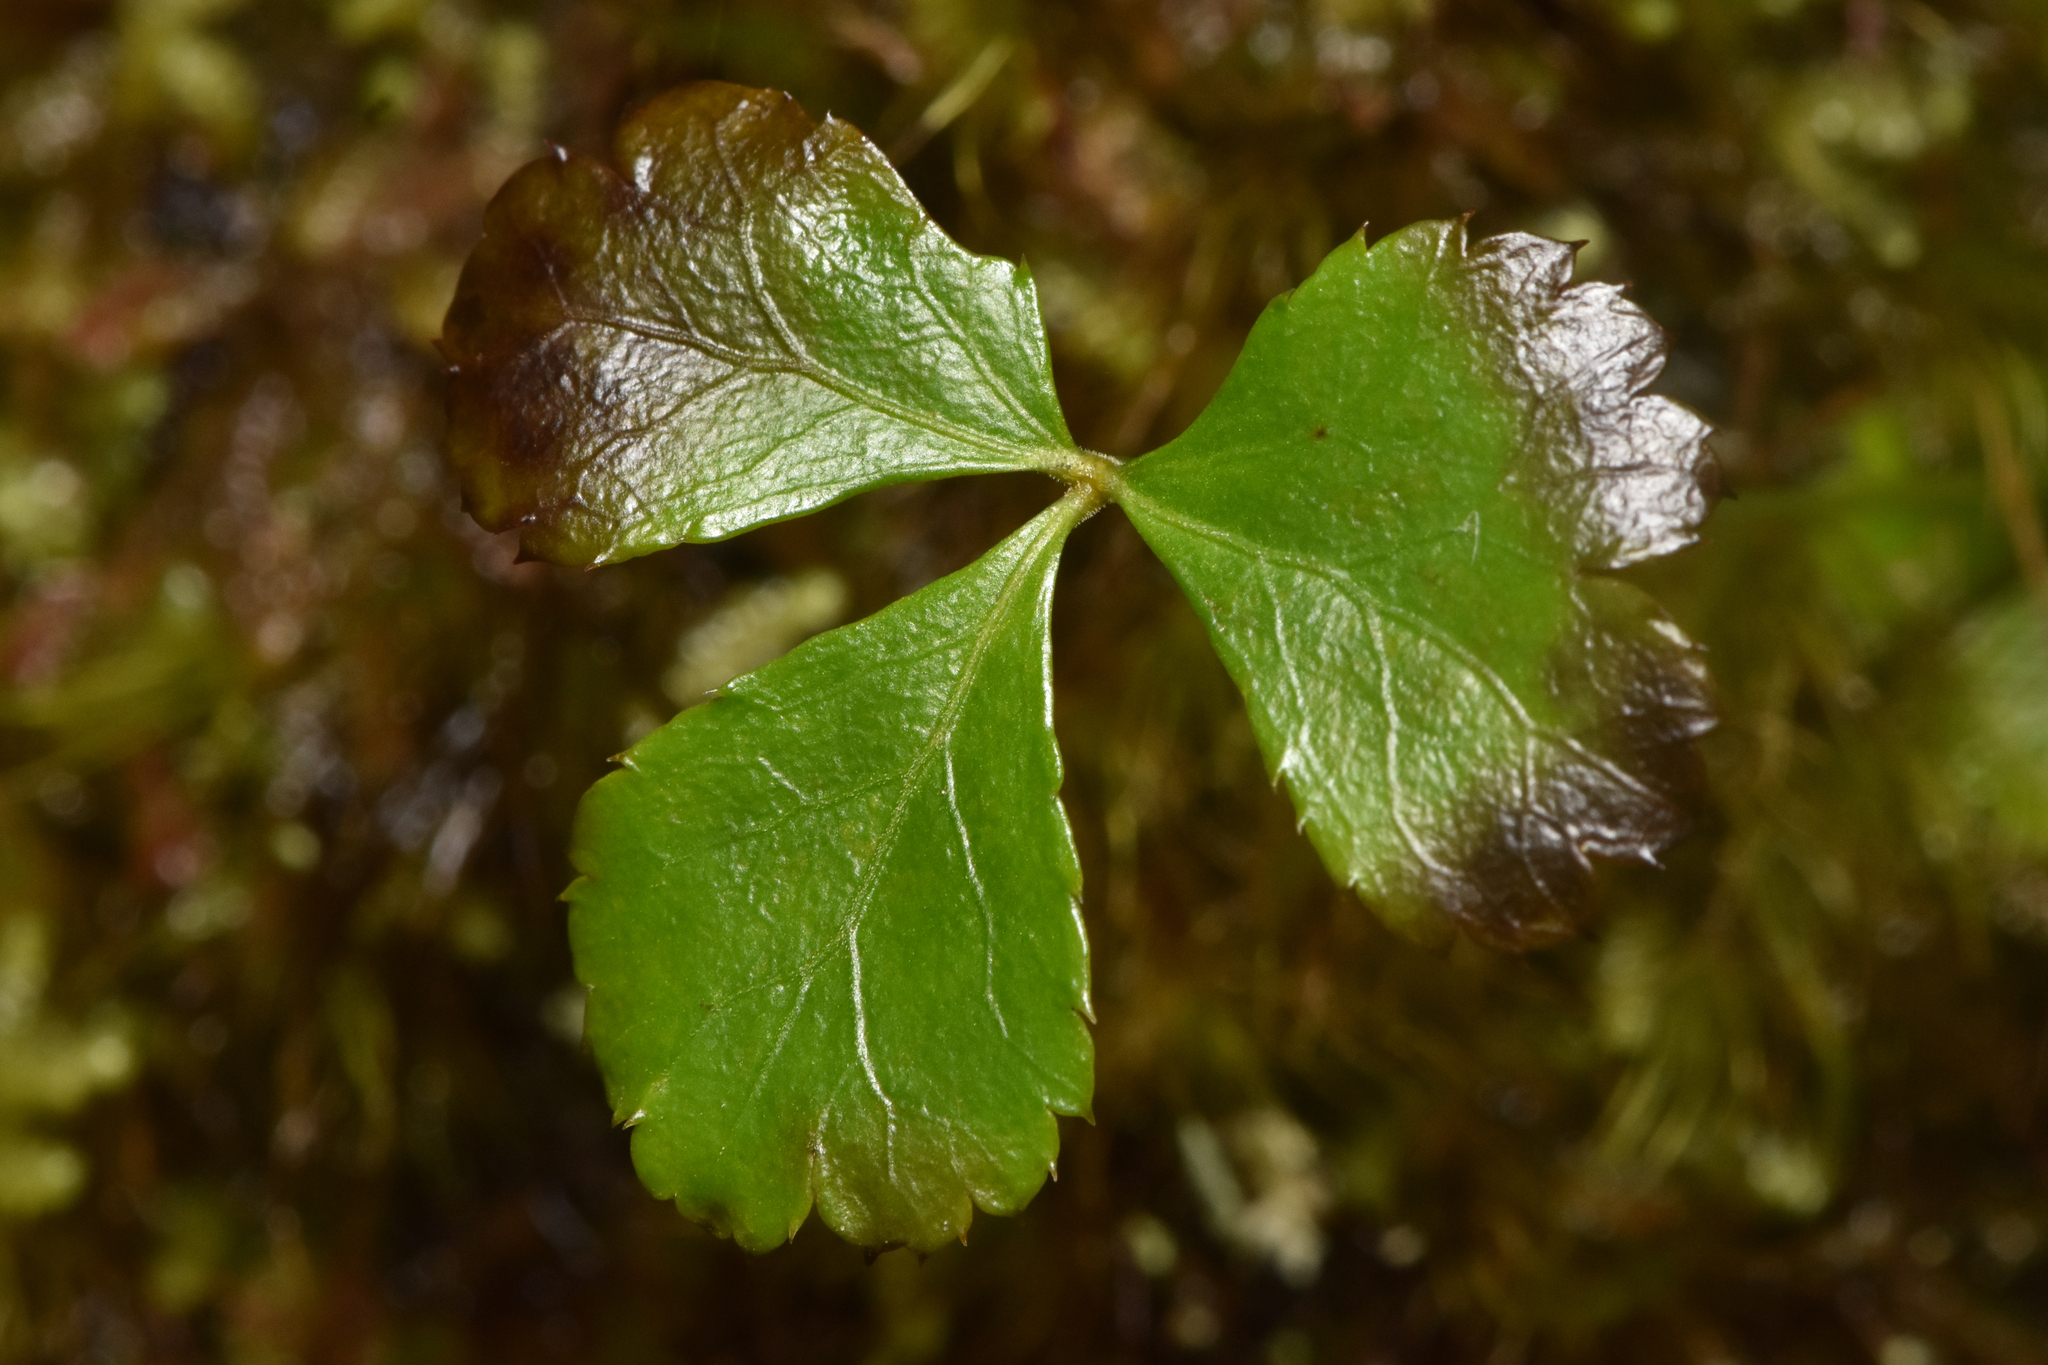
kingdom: Plantae
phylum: Tracheophyta
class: Magnoliopsida
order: Ranunculales
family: Ranunculaceae
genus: Coptis
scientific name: Coptis trifolia
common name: Canker-root
